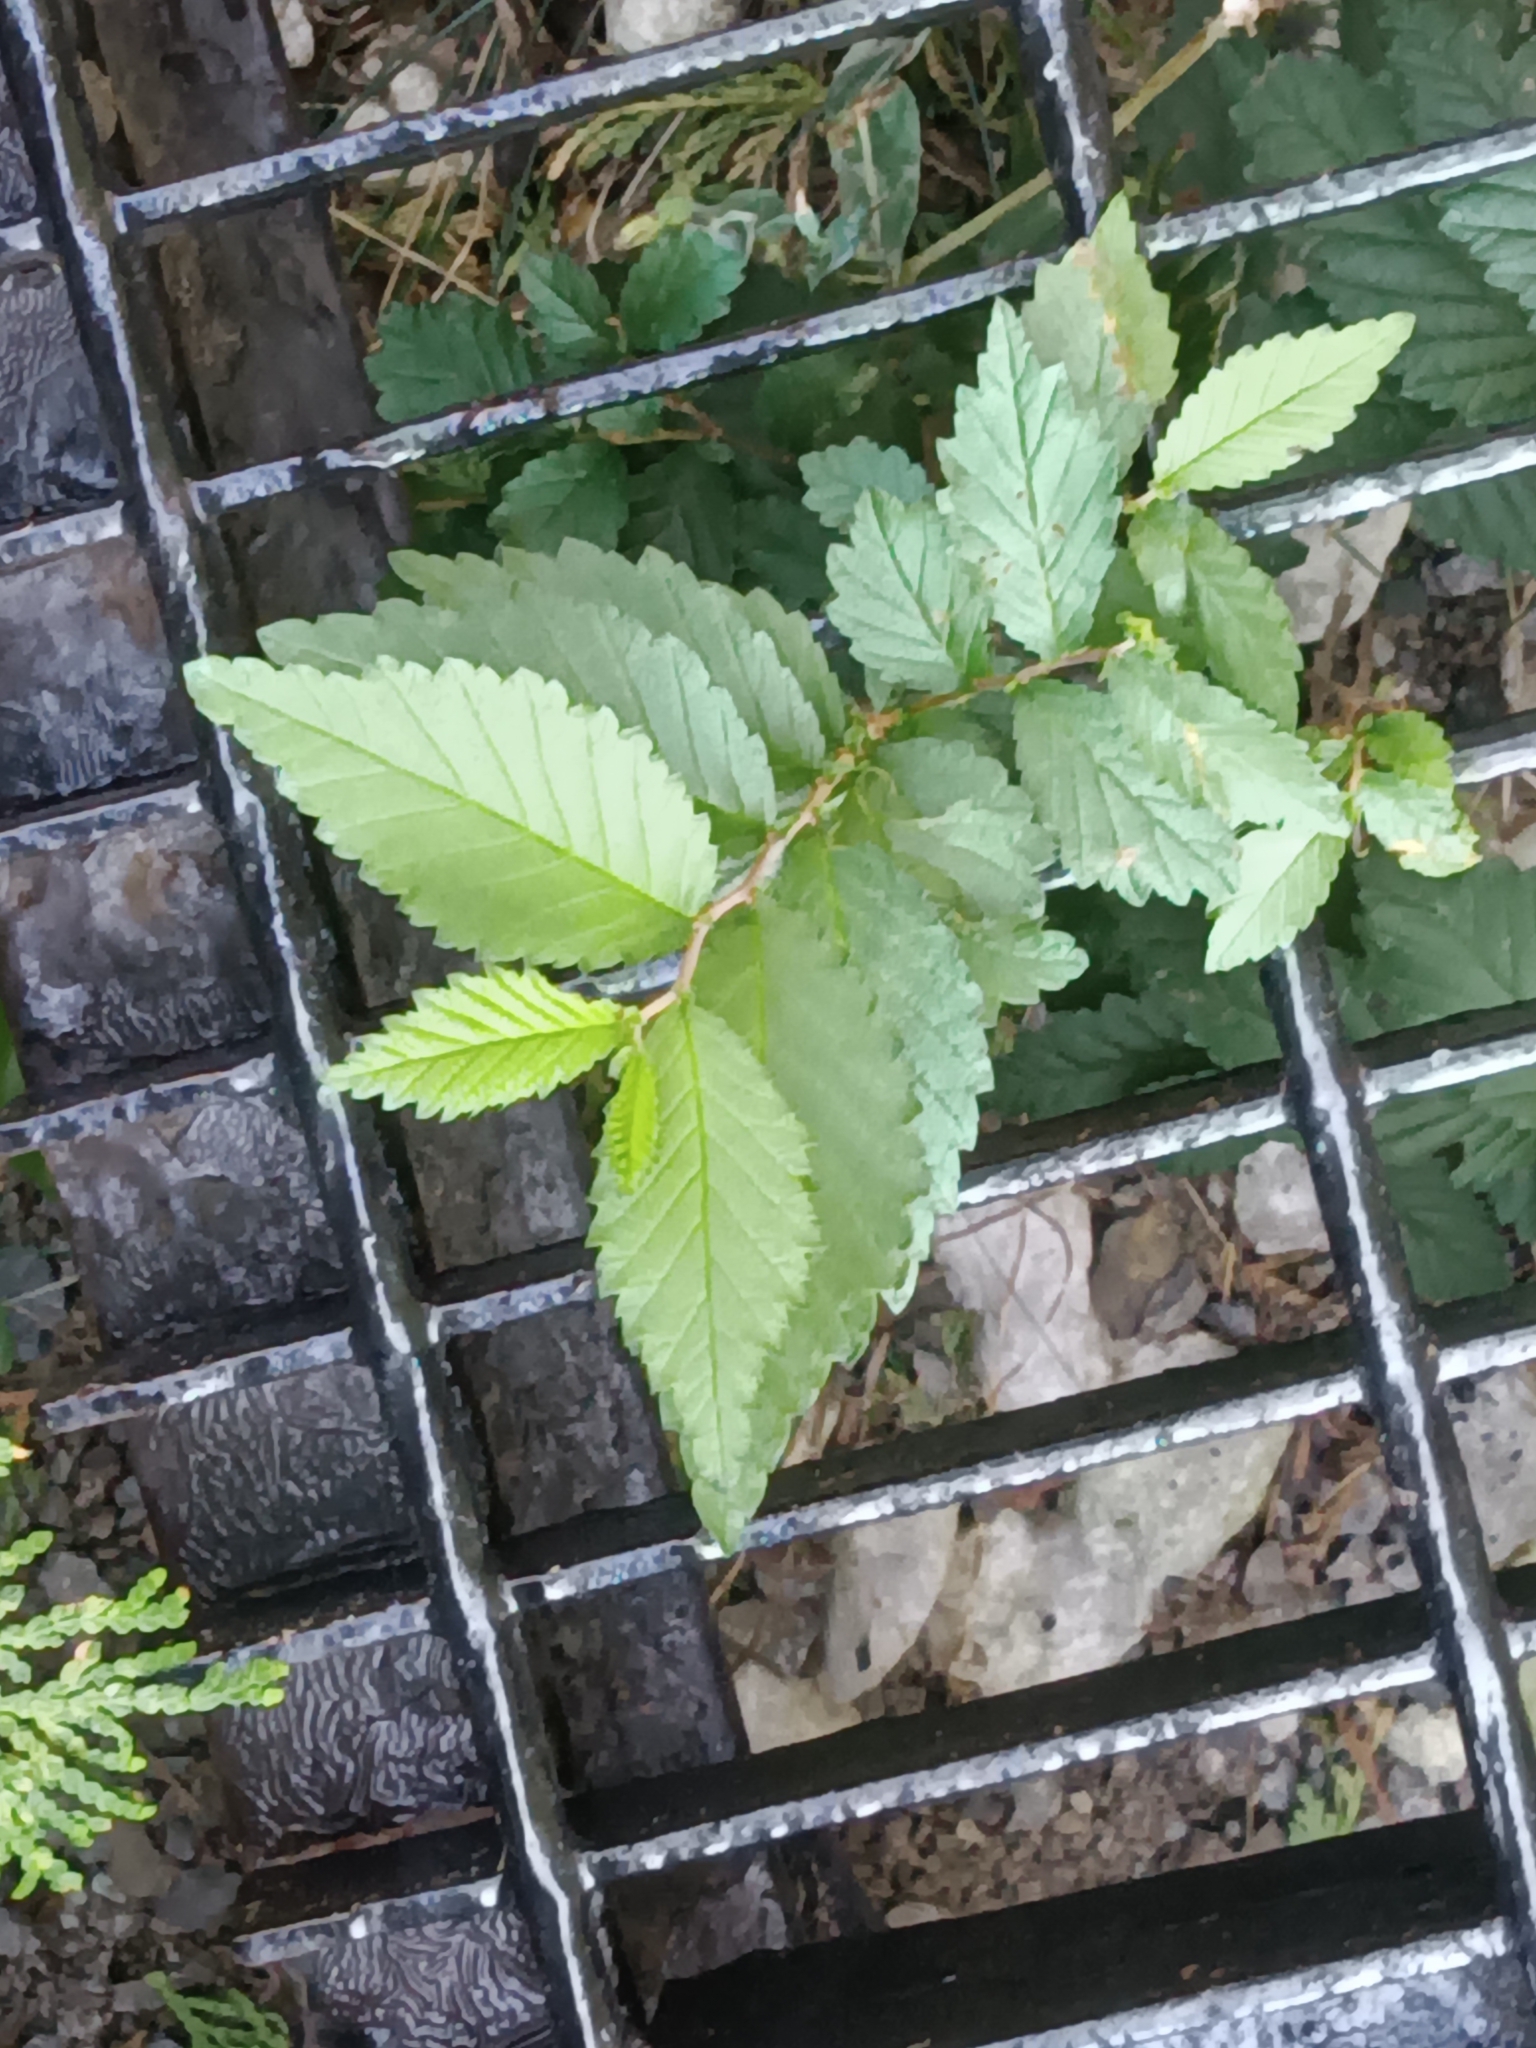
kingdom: Plantae
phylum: Tracheophyta
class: Magnoliopsida
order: Rosales
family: Ulmaceae
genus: Ulmus
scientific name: Ulmus pumila
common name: Siberian elm
